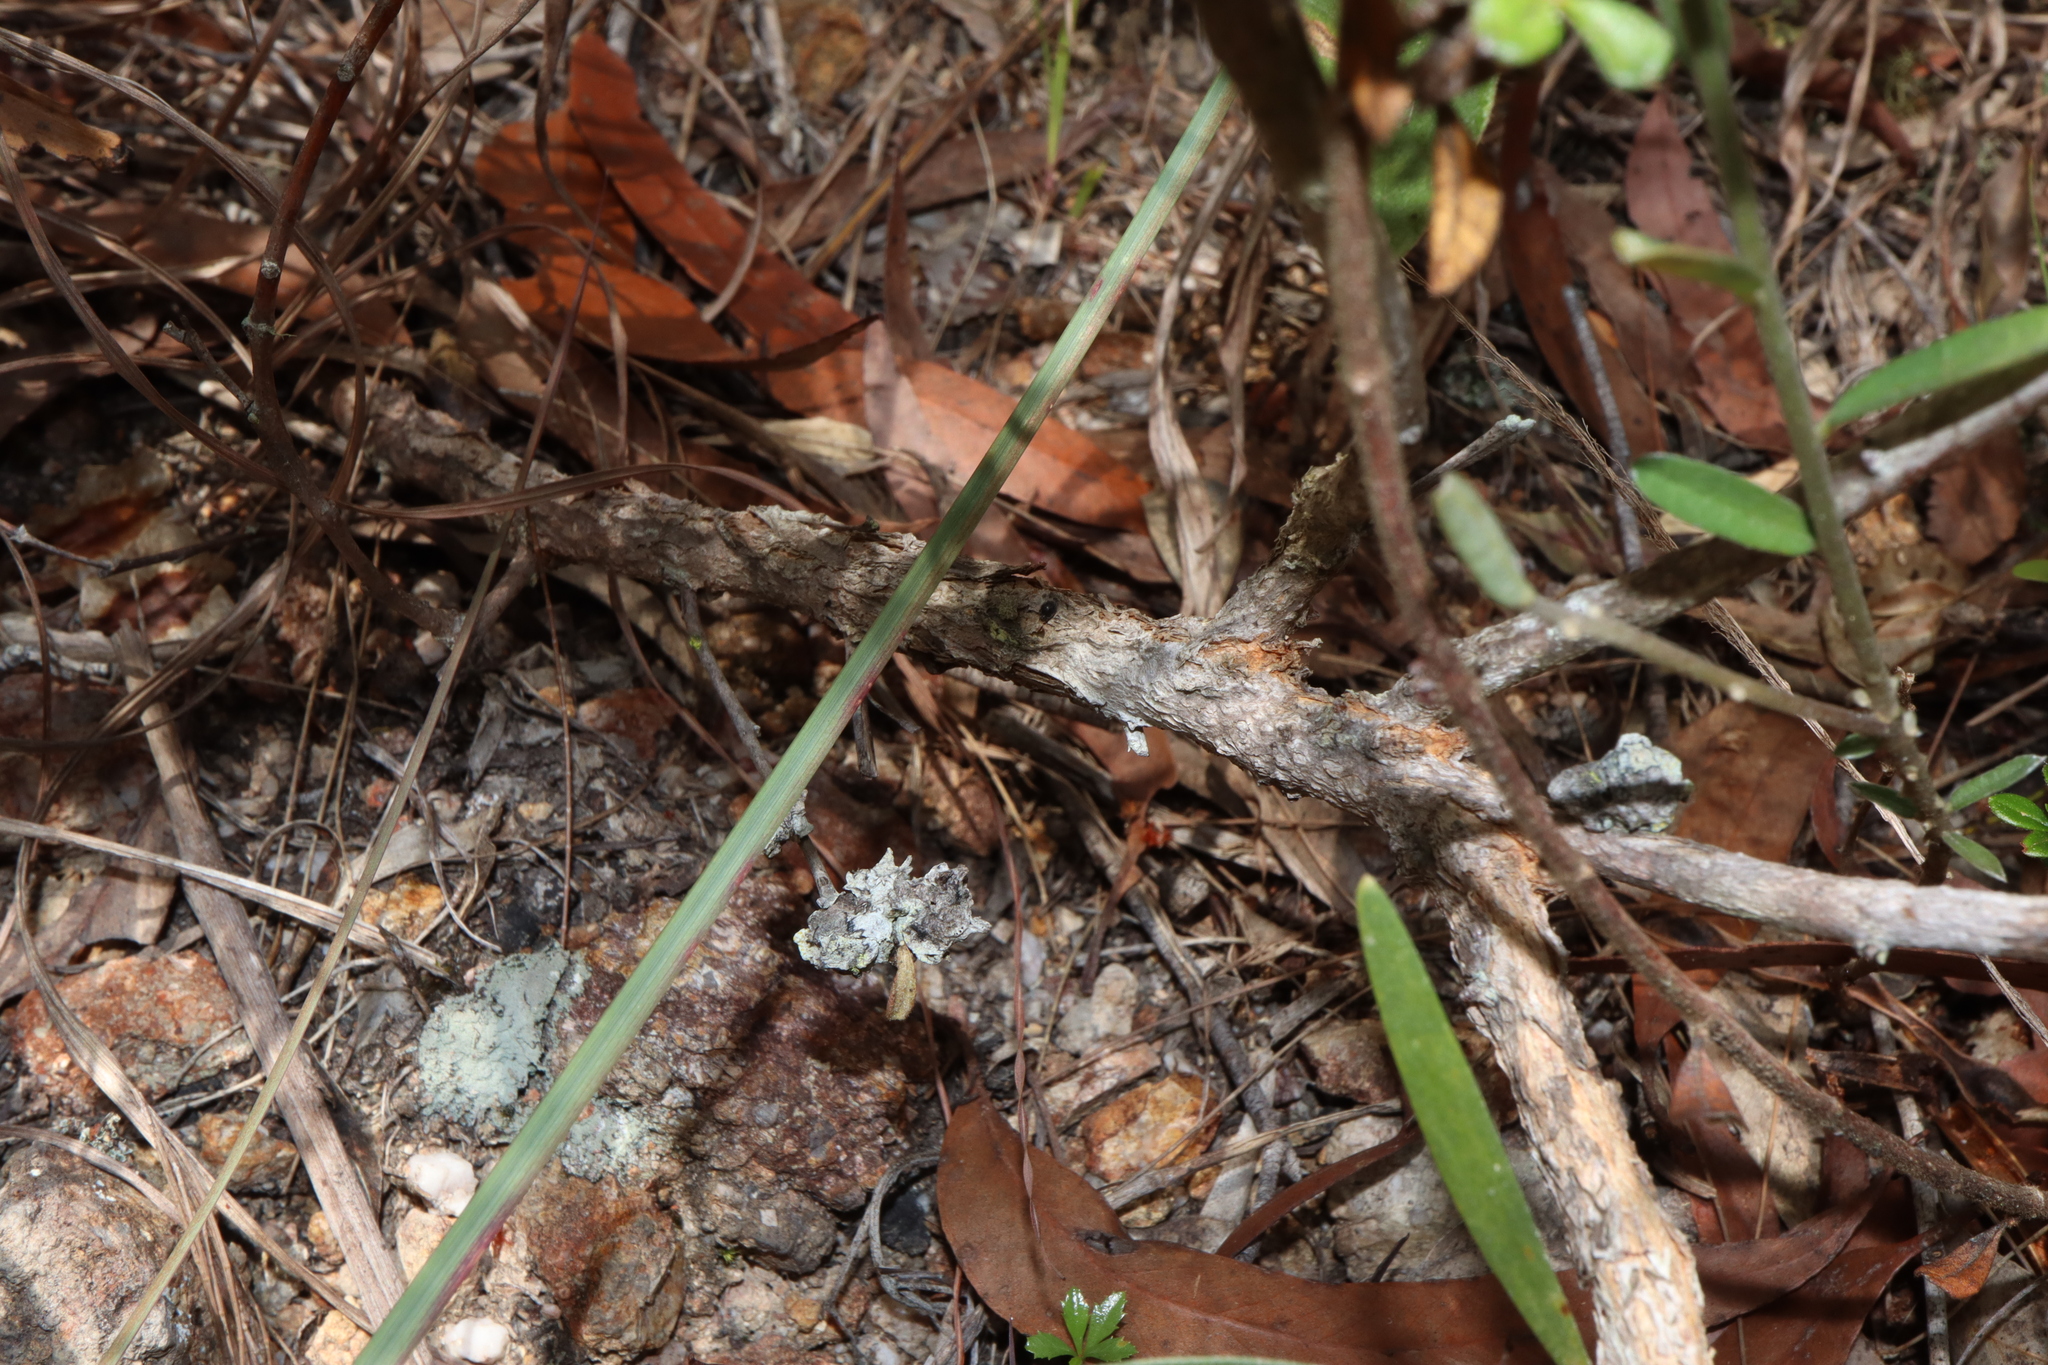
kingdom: Plantae
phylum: Tracheophyta
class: Magnoliopsida
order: Fabales
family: Fabaceae
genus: Acacia
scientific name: Acacia calyculata
